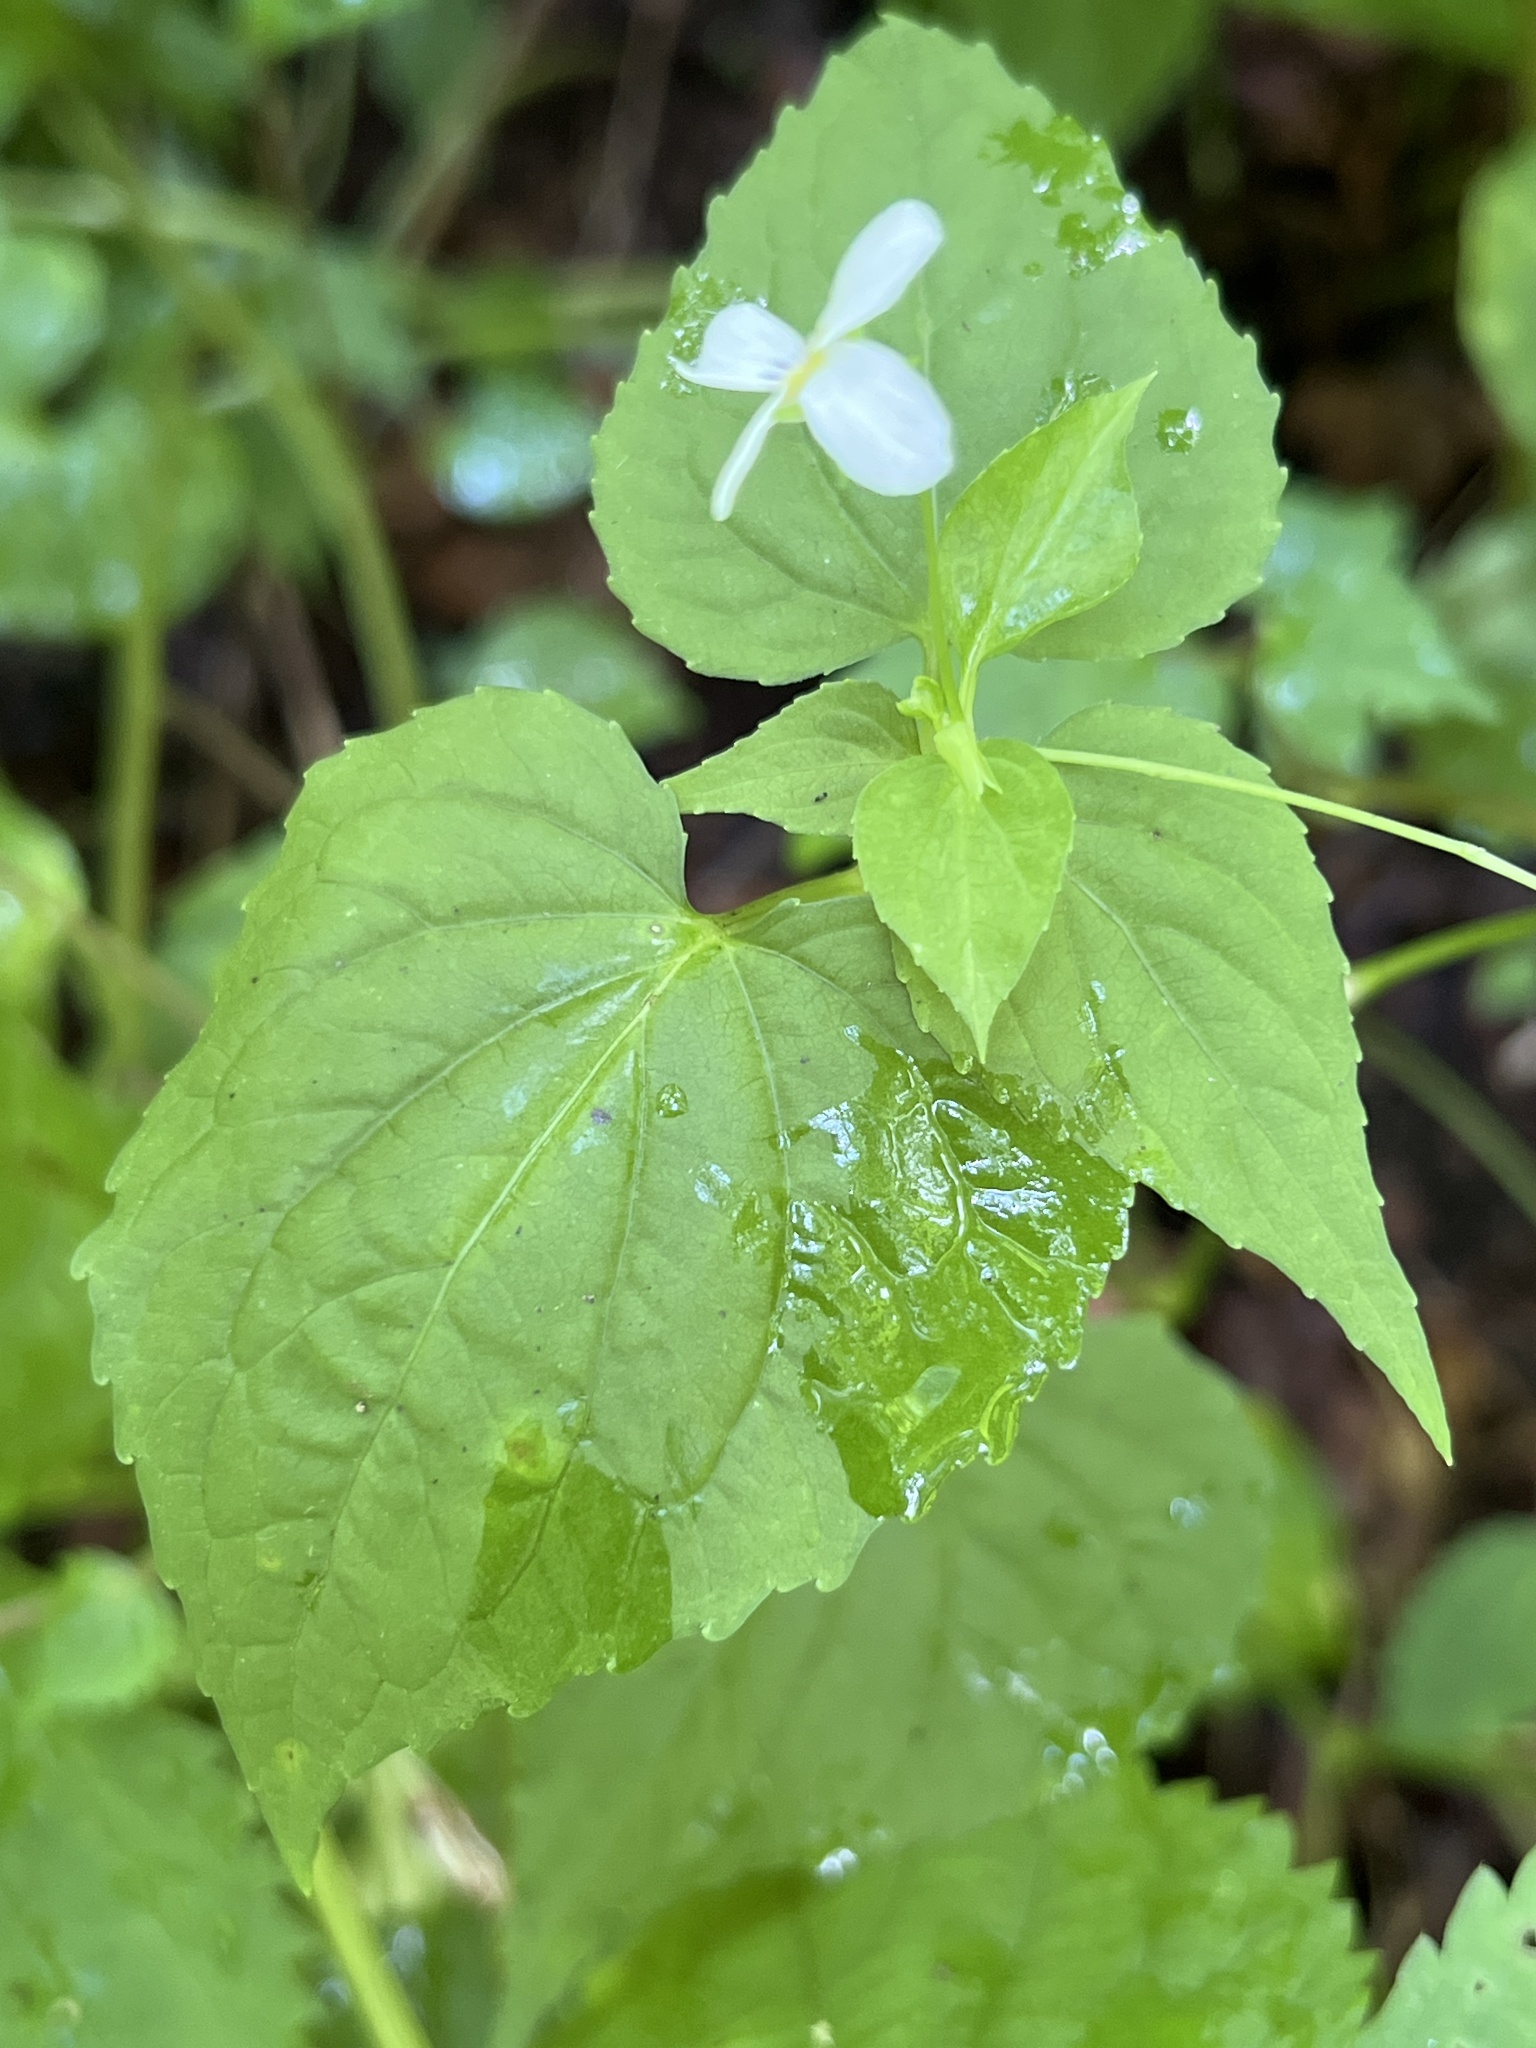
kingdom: Plantae
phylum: Tracheophyta
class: Magnoliopsida
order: Malpighiales
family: Violaceae
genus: Viola
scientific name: Viola canadensis
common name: Canada violet
